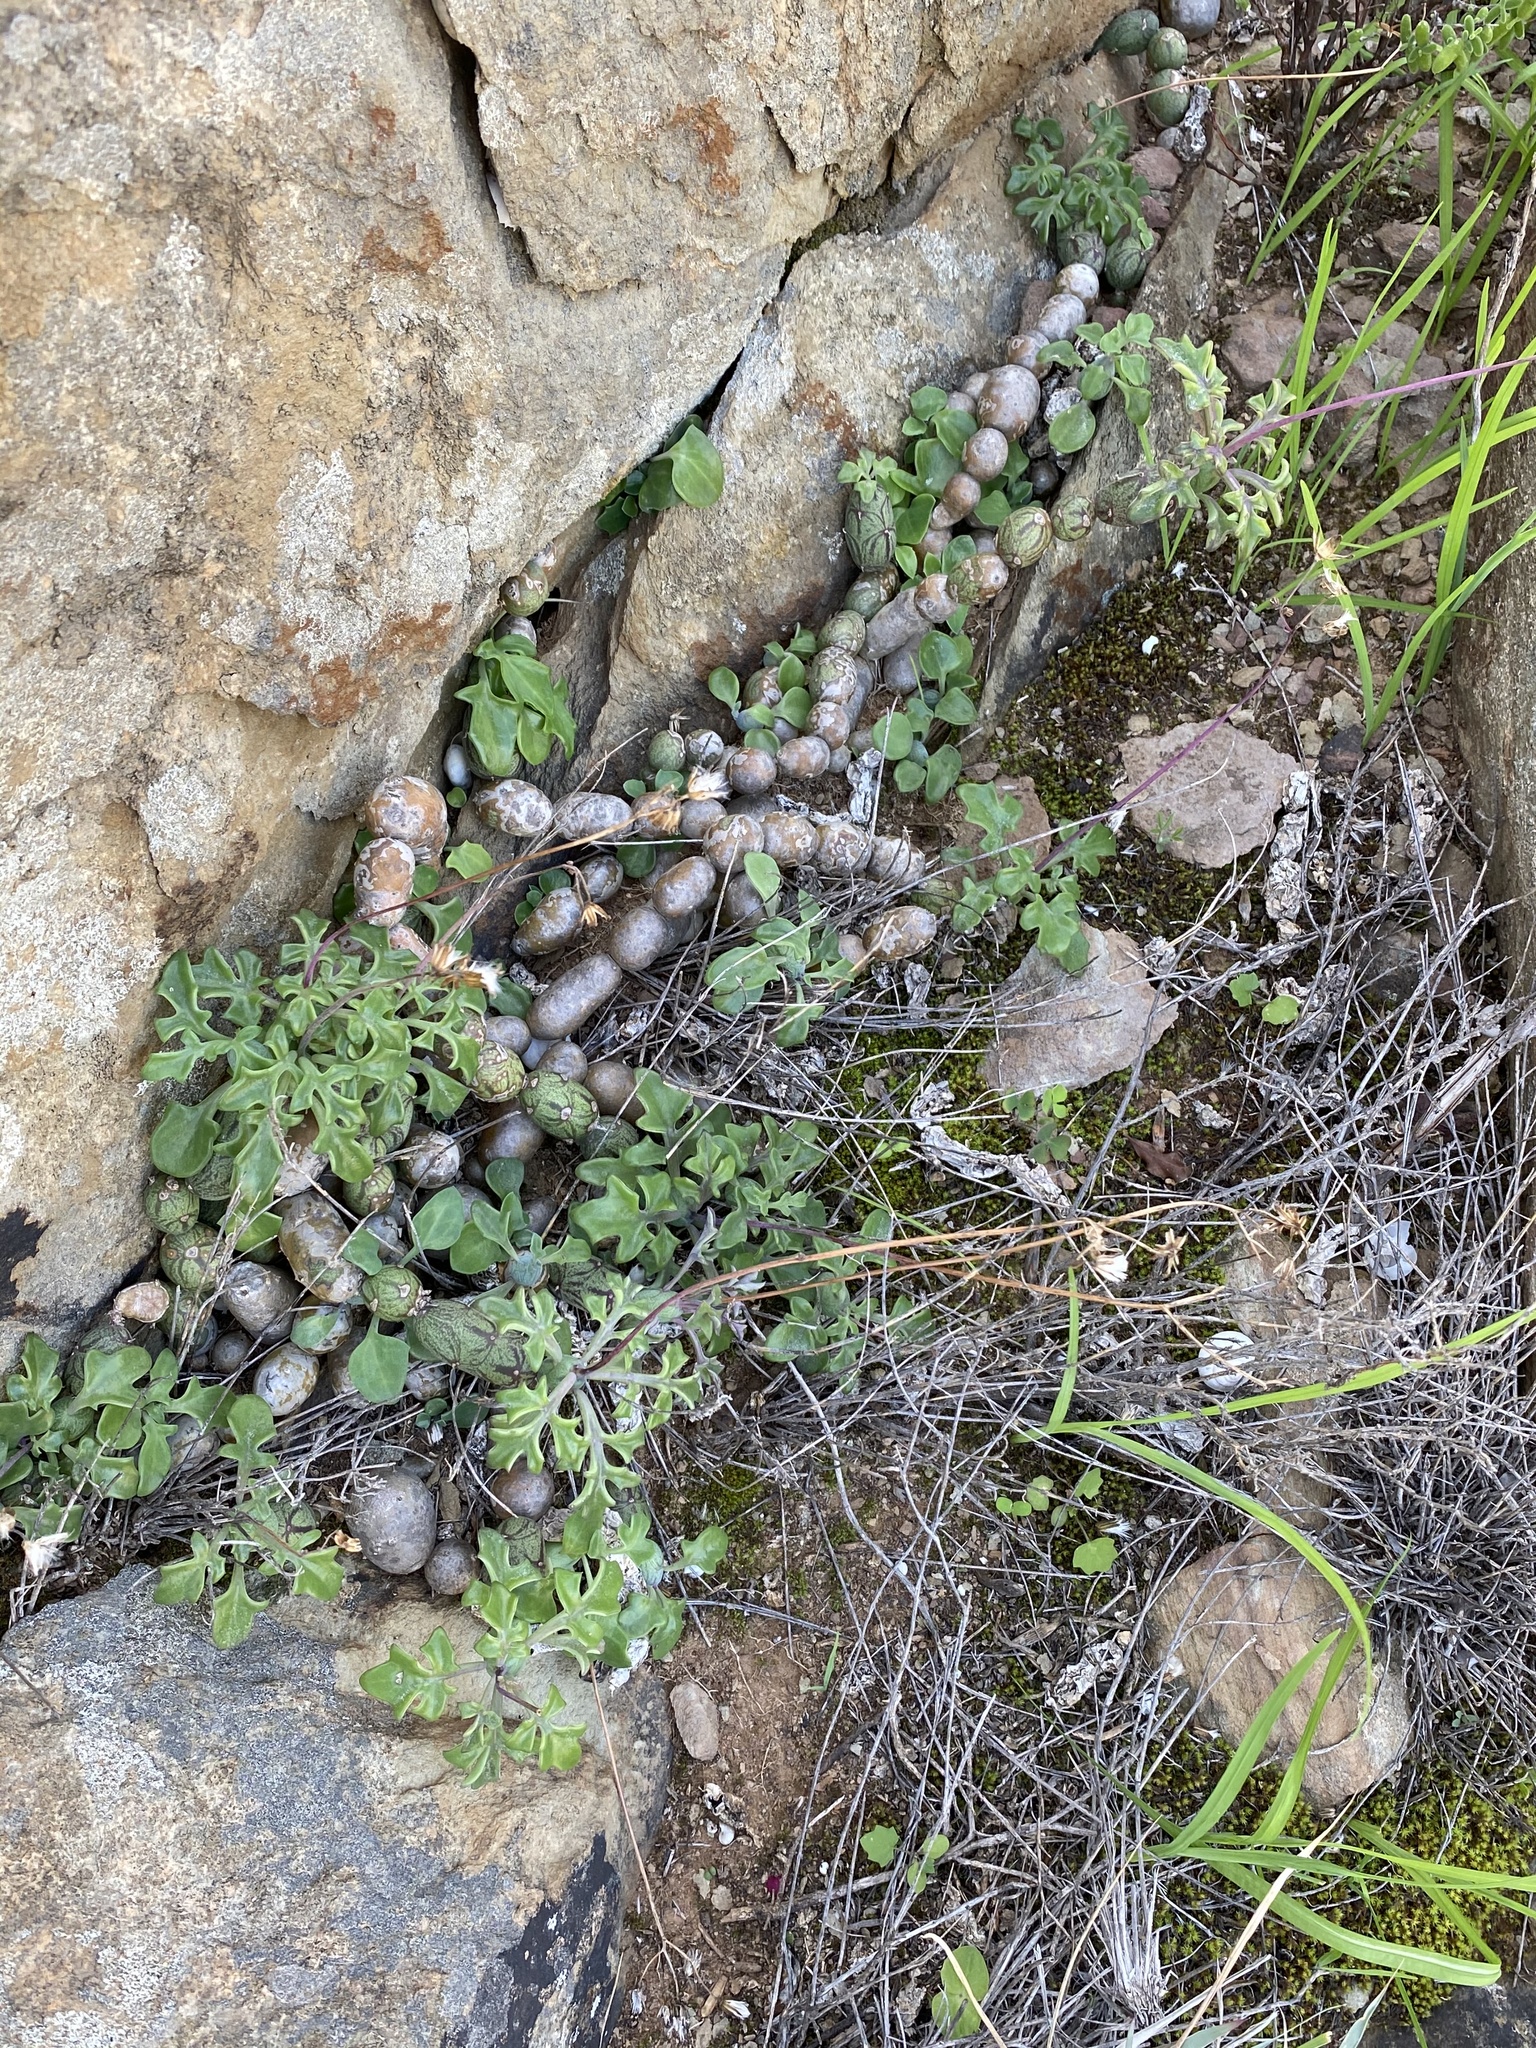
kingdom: Plantae
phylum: Tracheophyta
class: Magnoliopsida
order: Asterales
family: Asteraceae
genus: Curio
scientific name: Curio articulatus
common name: Candleplant
